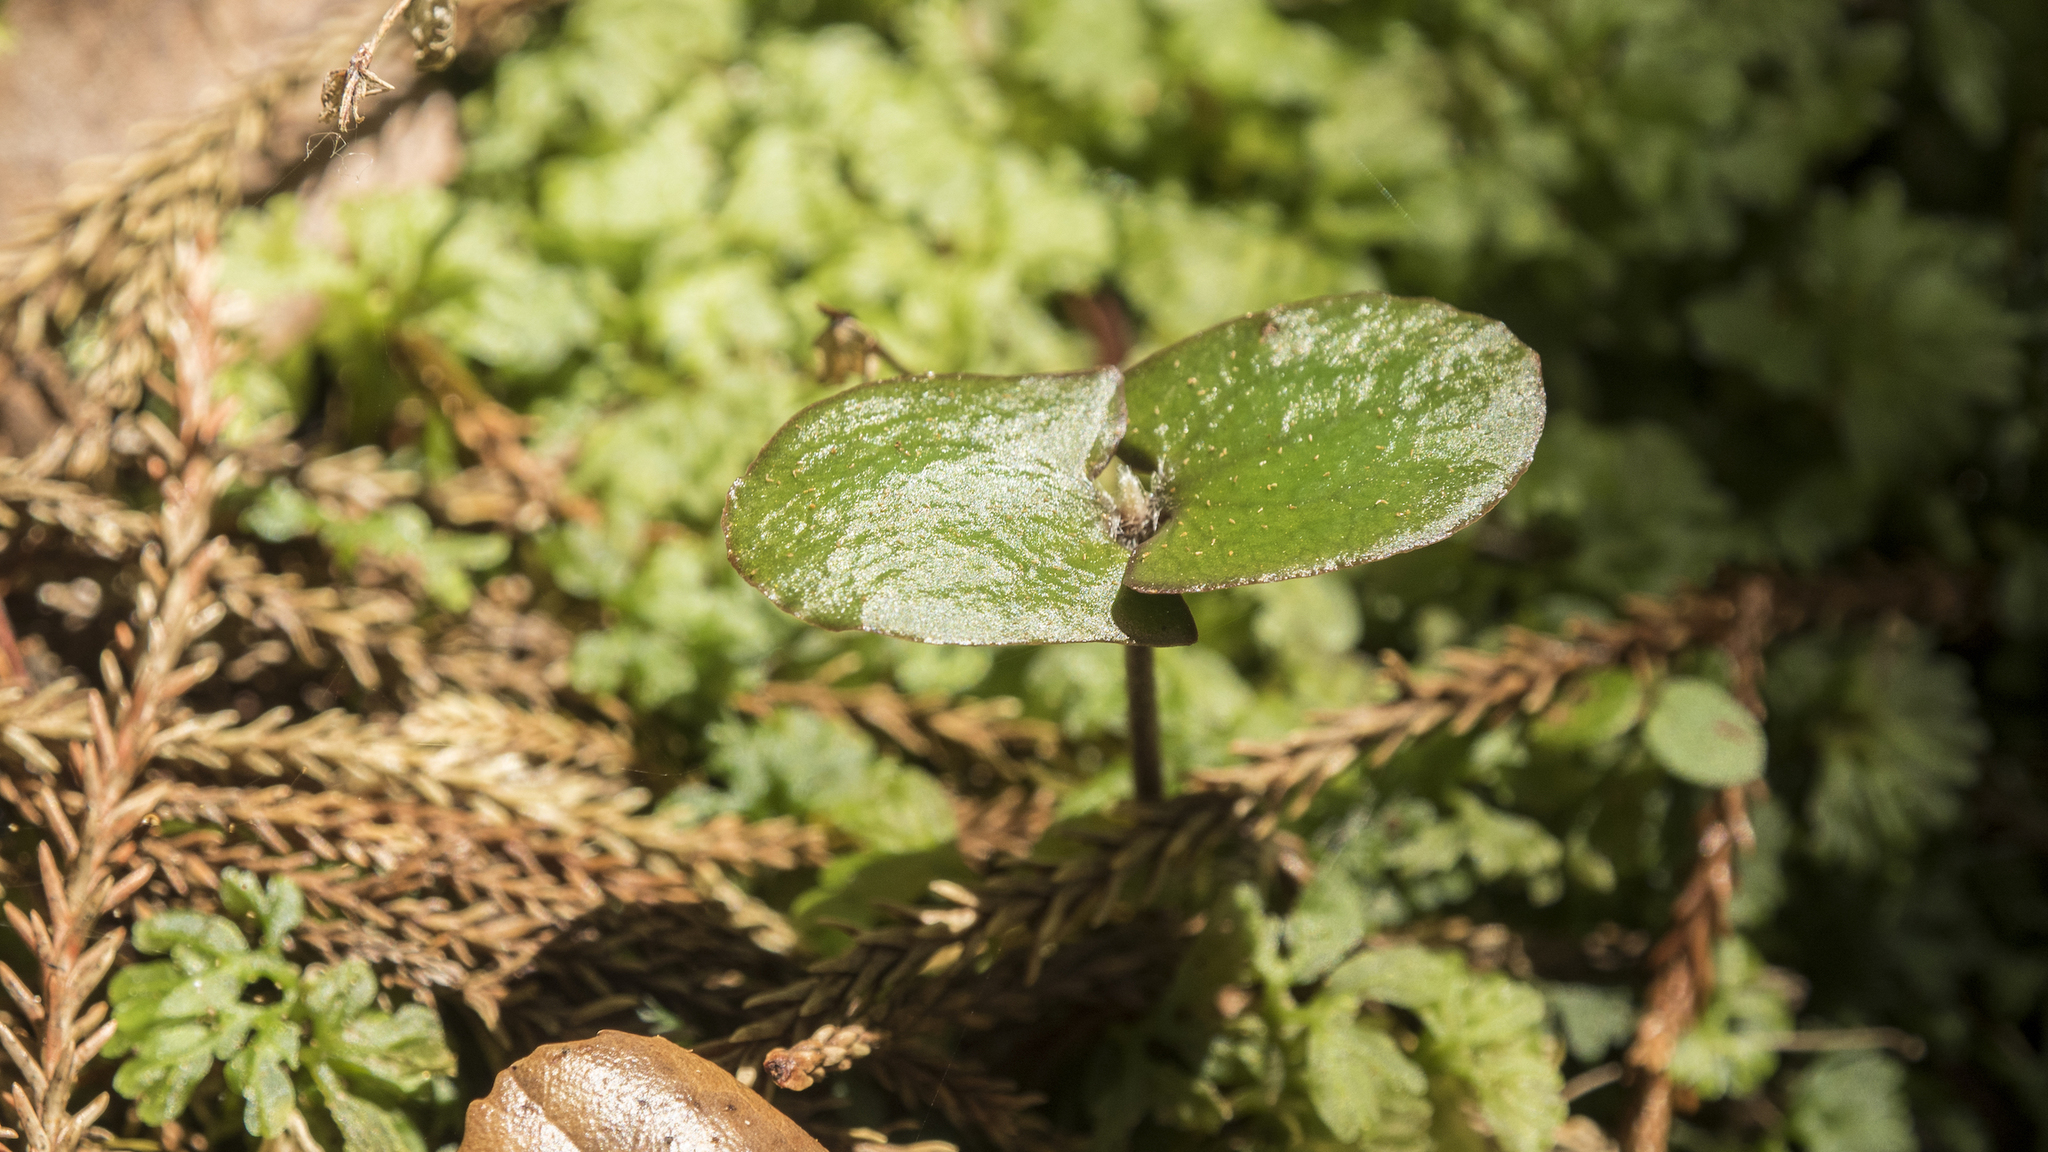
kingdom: Plantae
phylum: Tracheophyta
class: Magnoliopsida
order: Proteales
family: Proteaceae
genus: Knightia
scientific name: Knightia excelsa
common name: New zealand-honeysuckle
